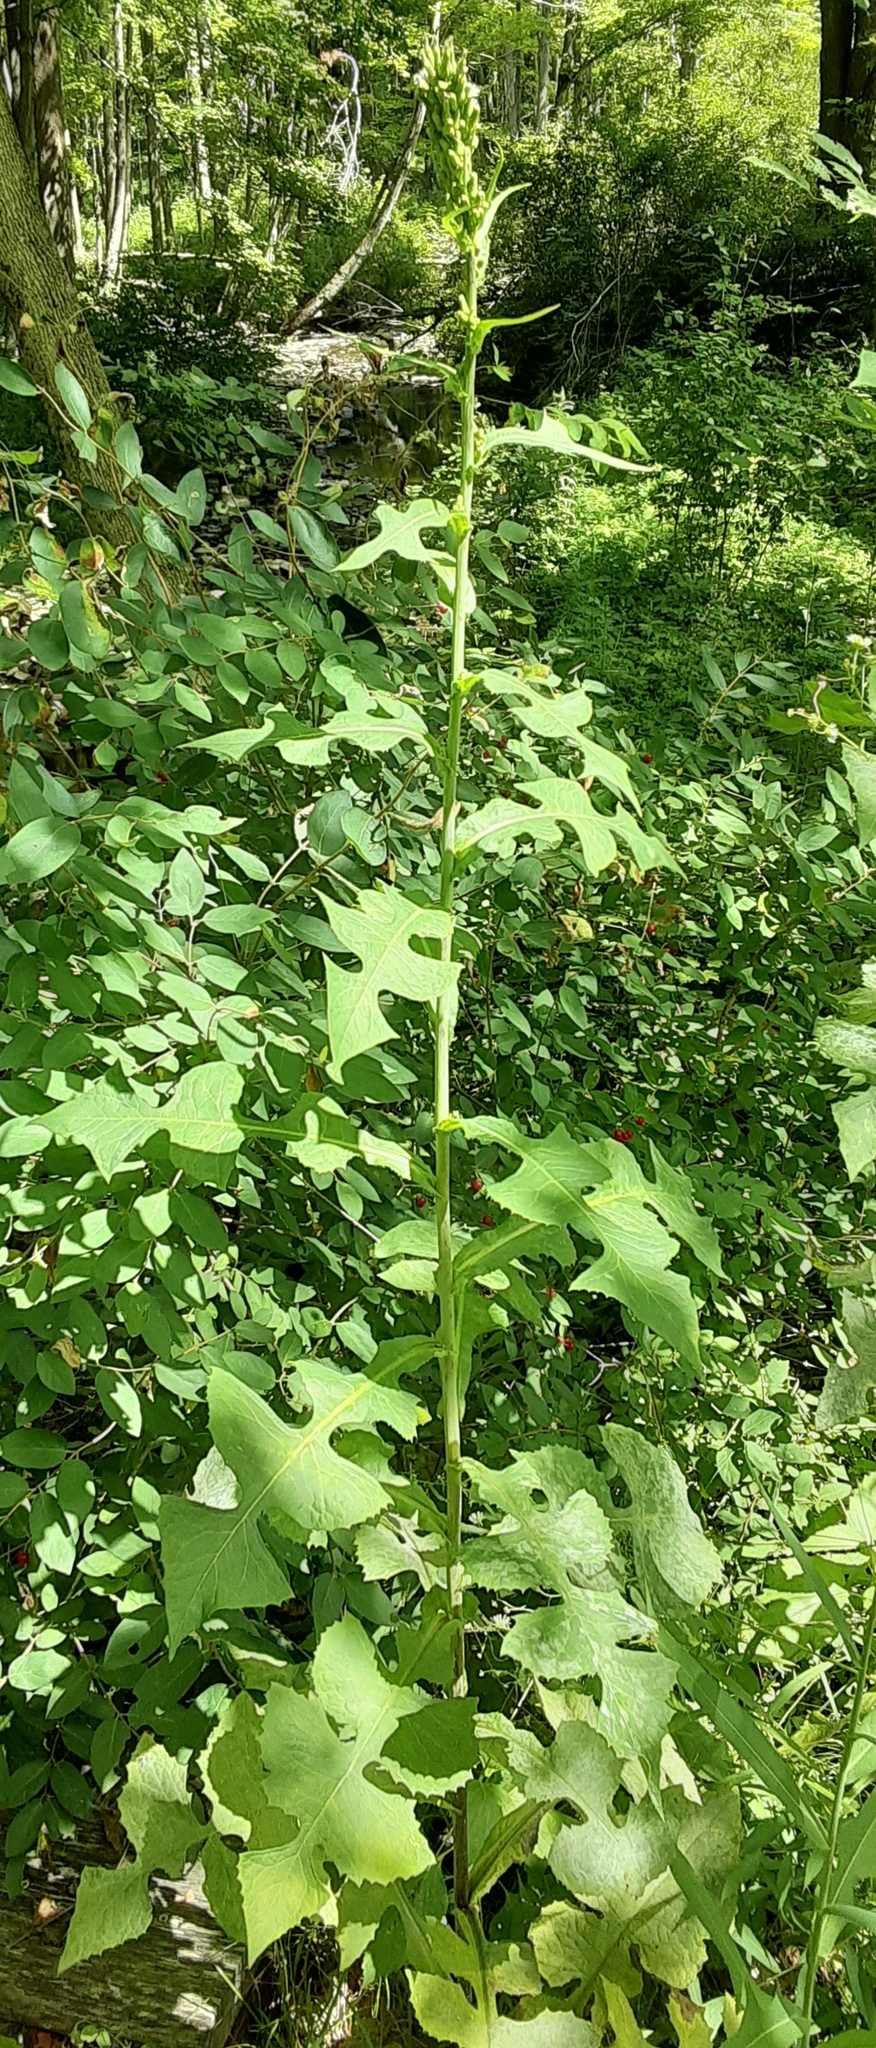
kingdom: Plantae
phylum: Tracheophyta
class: Magnoliopsida
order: Asterales
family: Asteraceae
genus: Lactuca
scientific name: Lactuca biennis
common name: Blue wood lettuce
